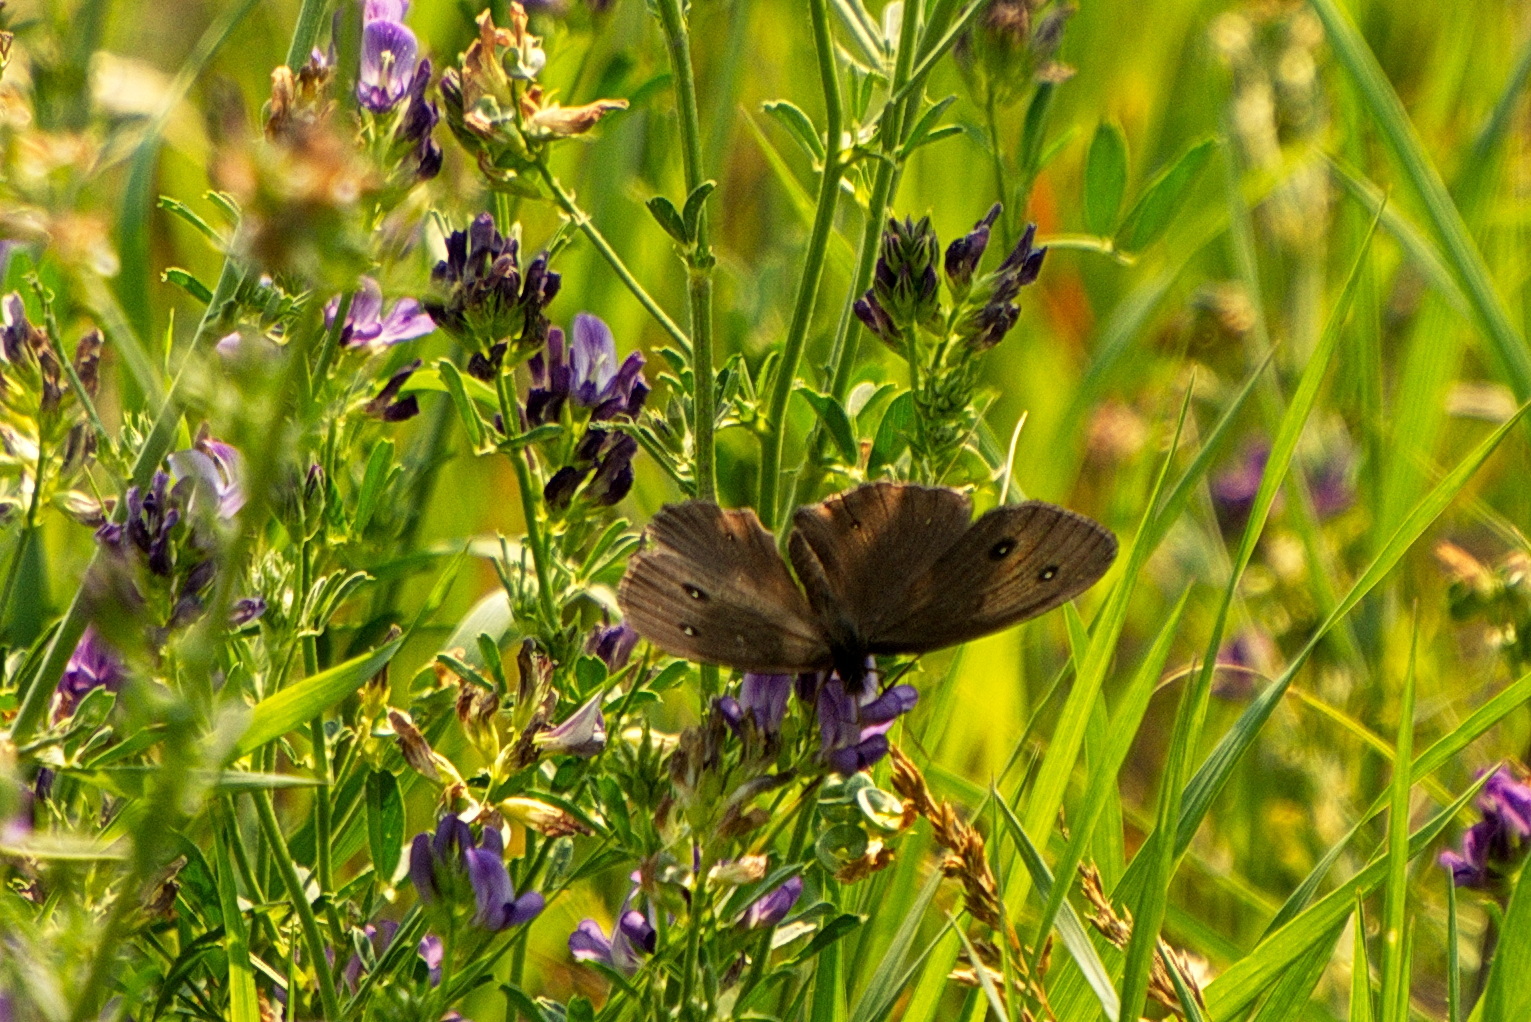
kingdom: Animalia
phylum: Arthropoda
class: Insecta
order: Lepidoptera
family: Nymphalidae
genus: Cercyonis
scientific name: Cercyonis pegala
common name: Common wood-nymph
